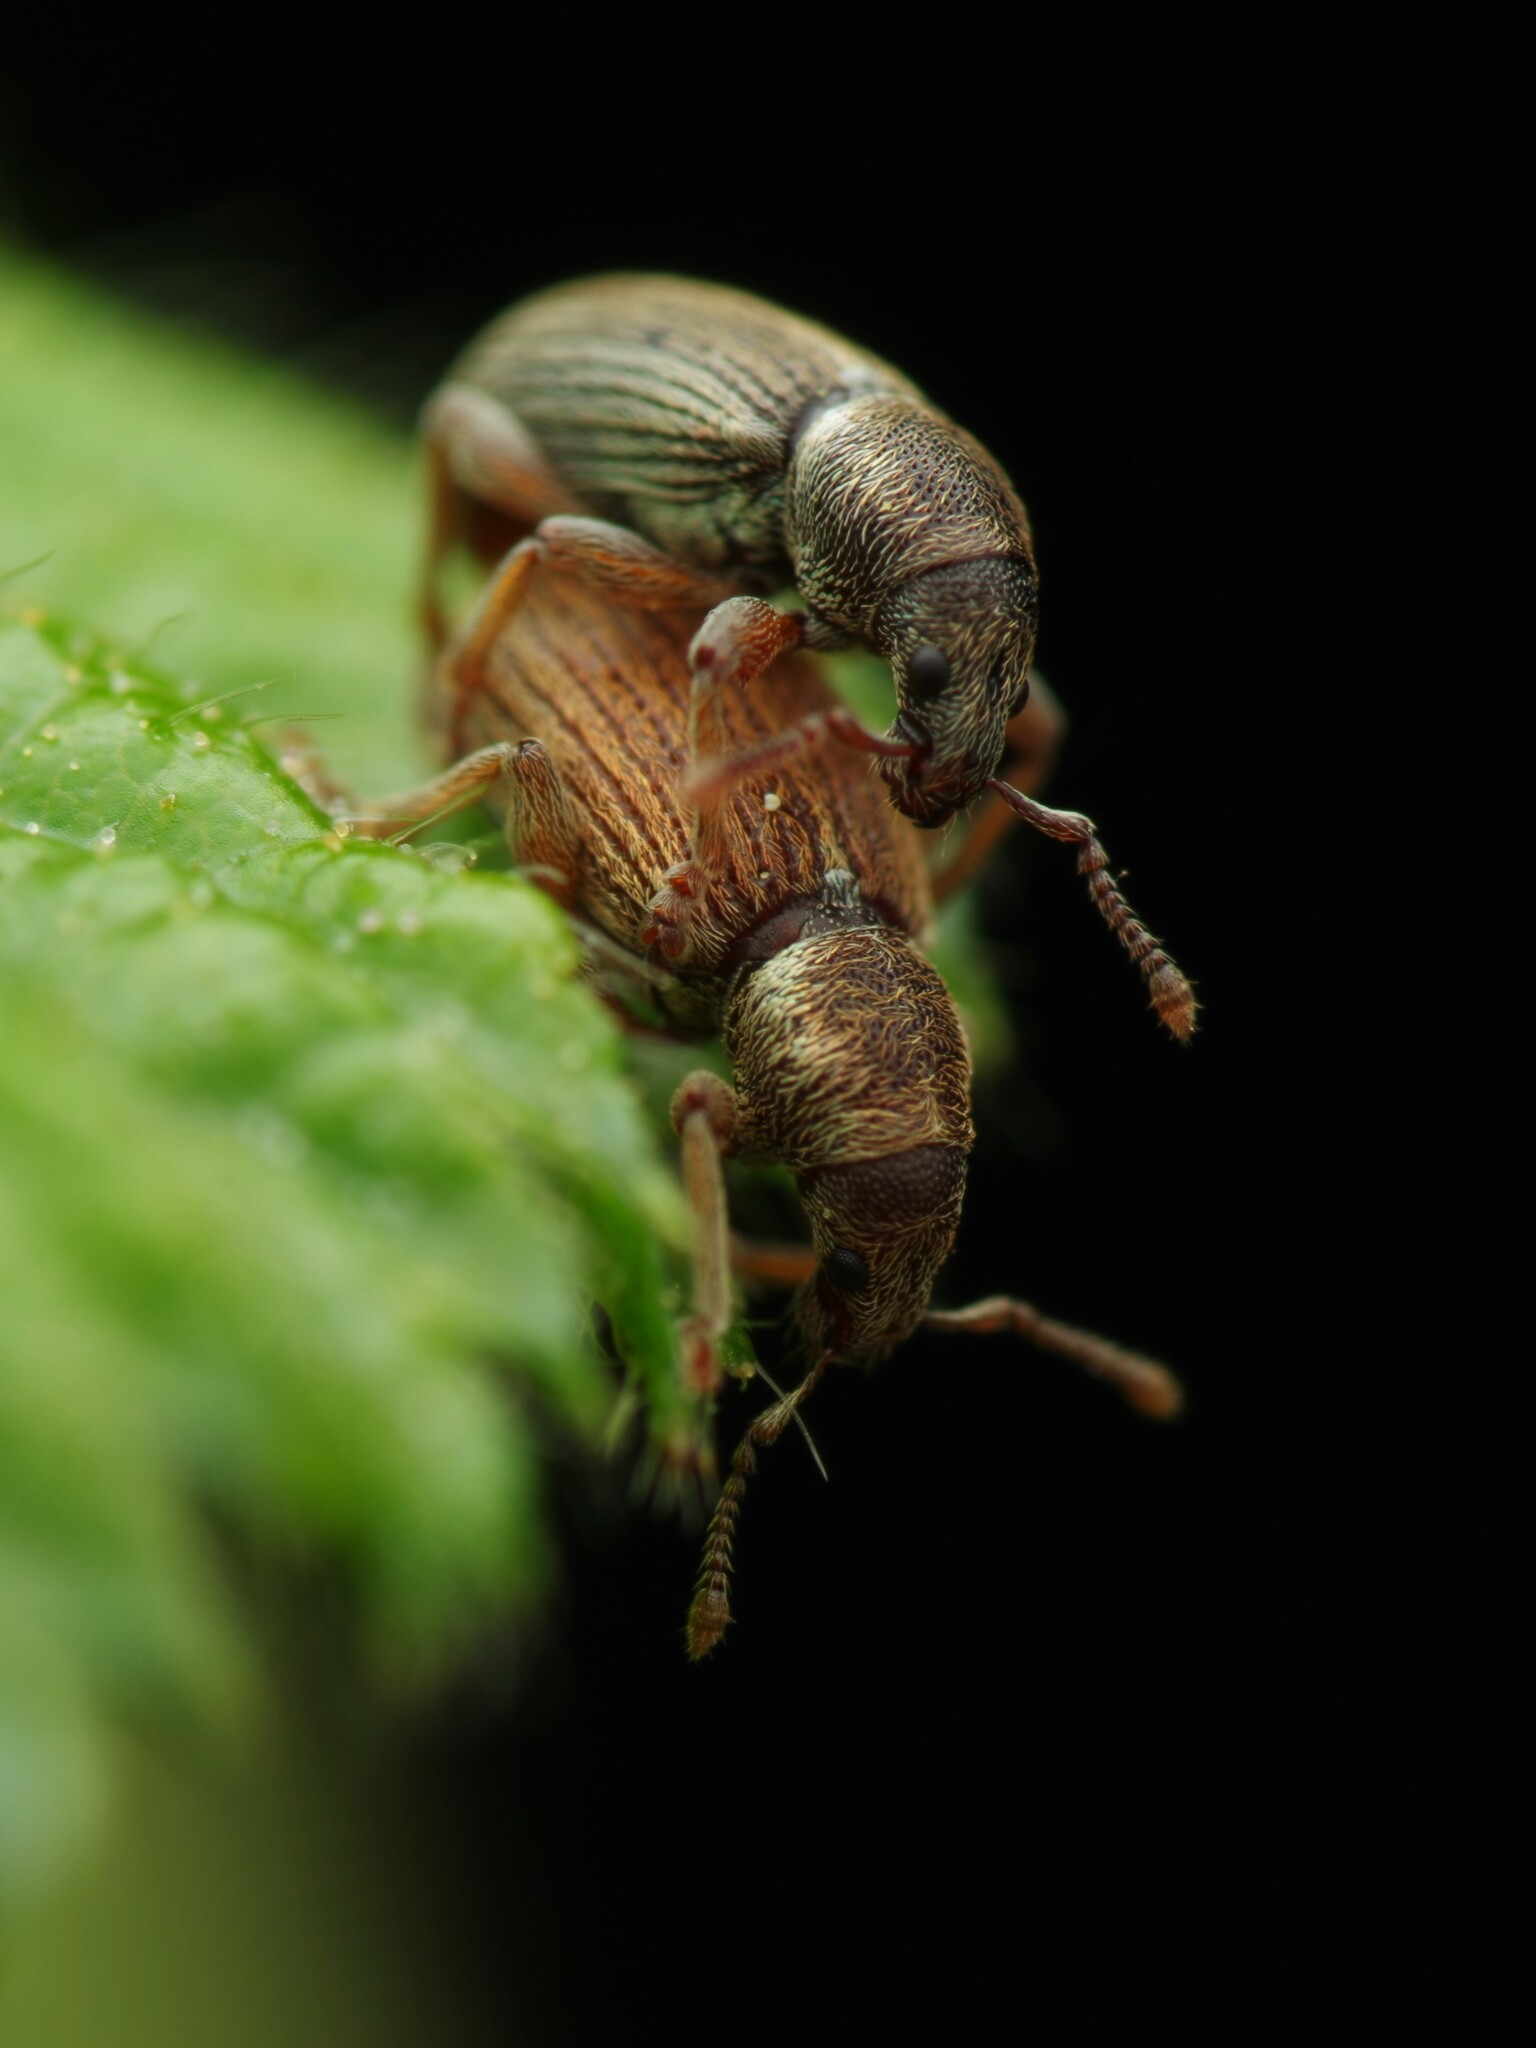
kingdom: Animalia
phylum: Arthropoda
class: Insecta
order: Coleoptera
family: Curculionidae
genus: Polydrusus
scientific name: Polydrusus marginatus
